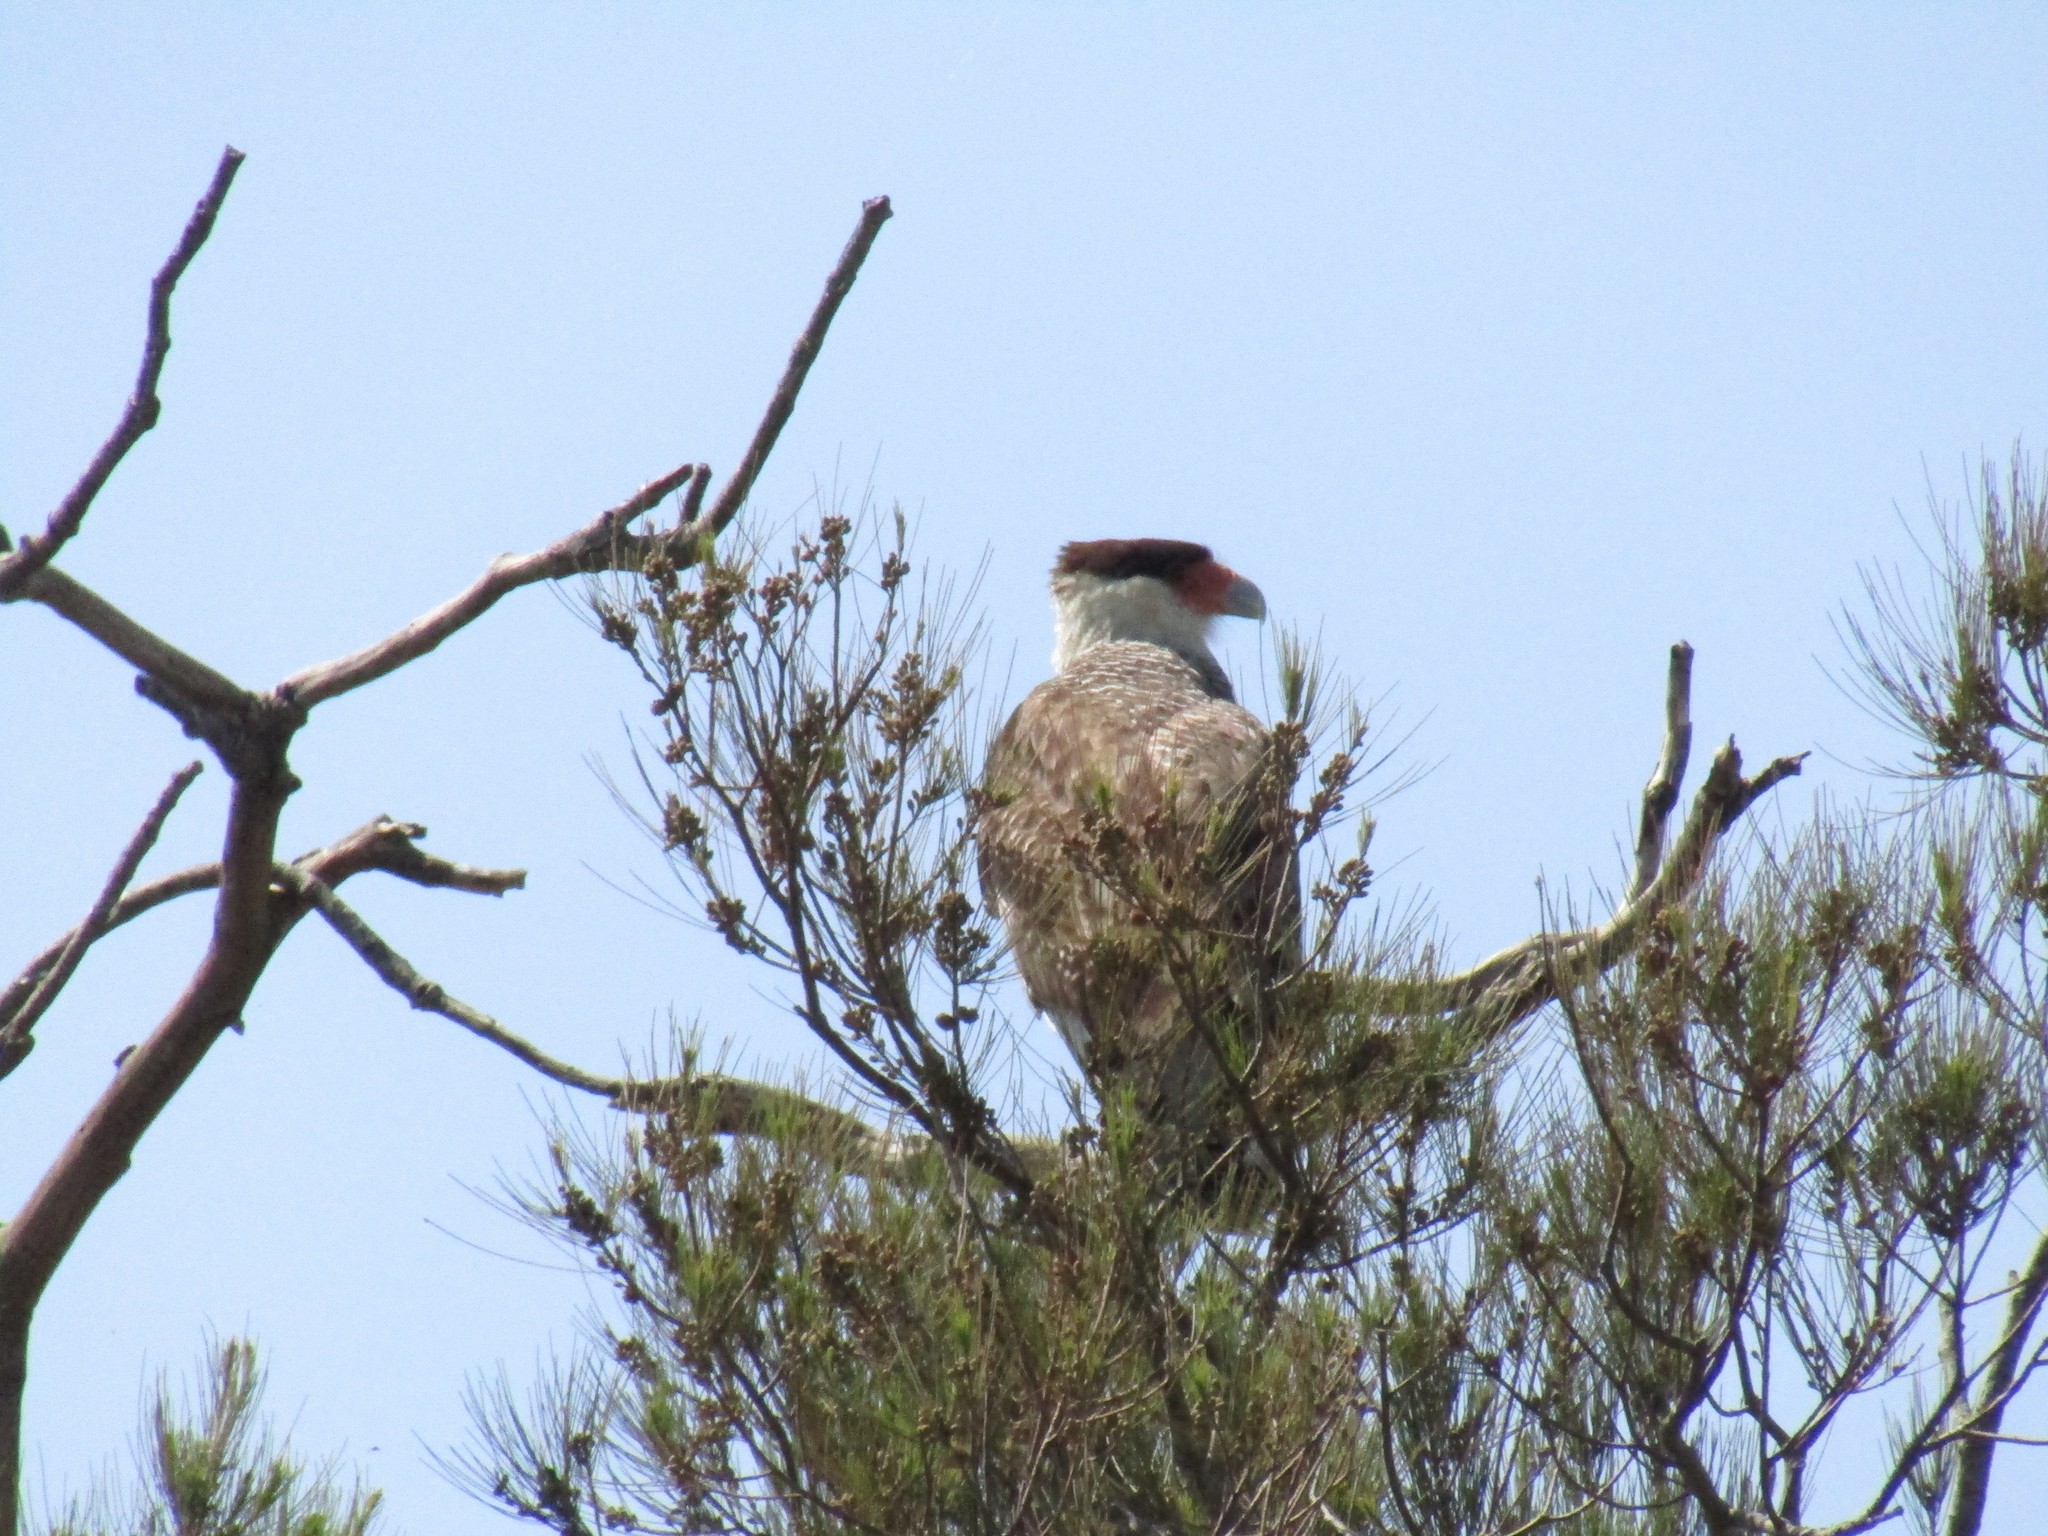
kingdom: Animalia
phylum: Chordata
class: Aves
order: Falconiformes
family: Falconidae
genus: Caracara
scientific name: Caracara plancus
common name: Southern caracara
